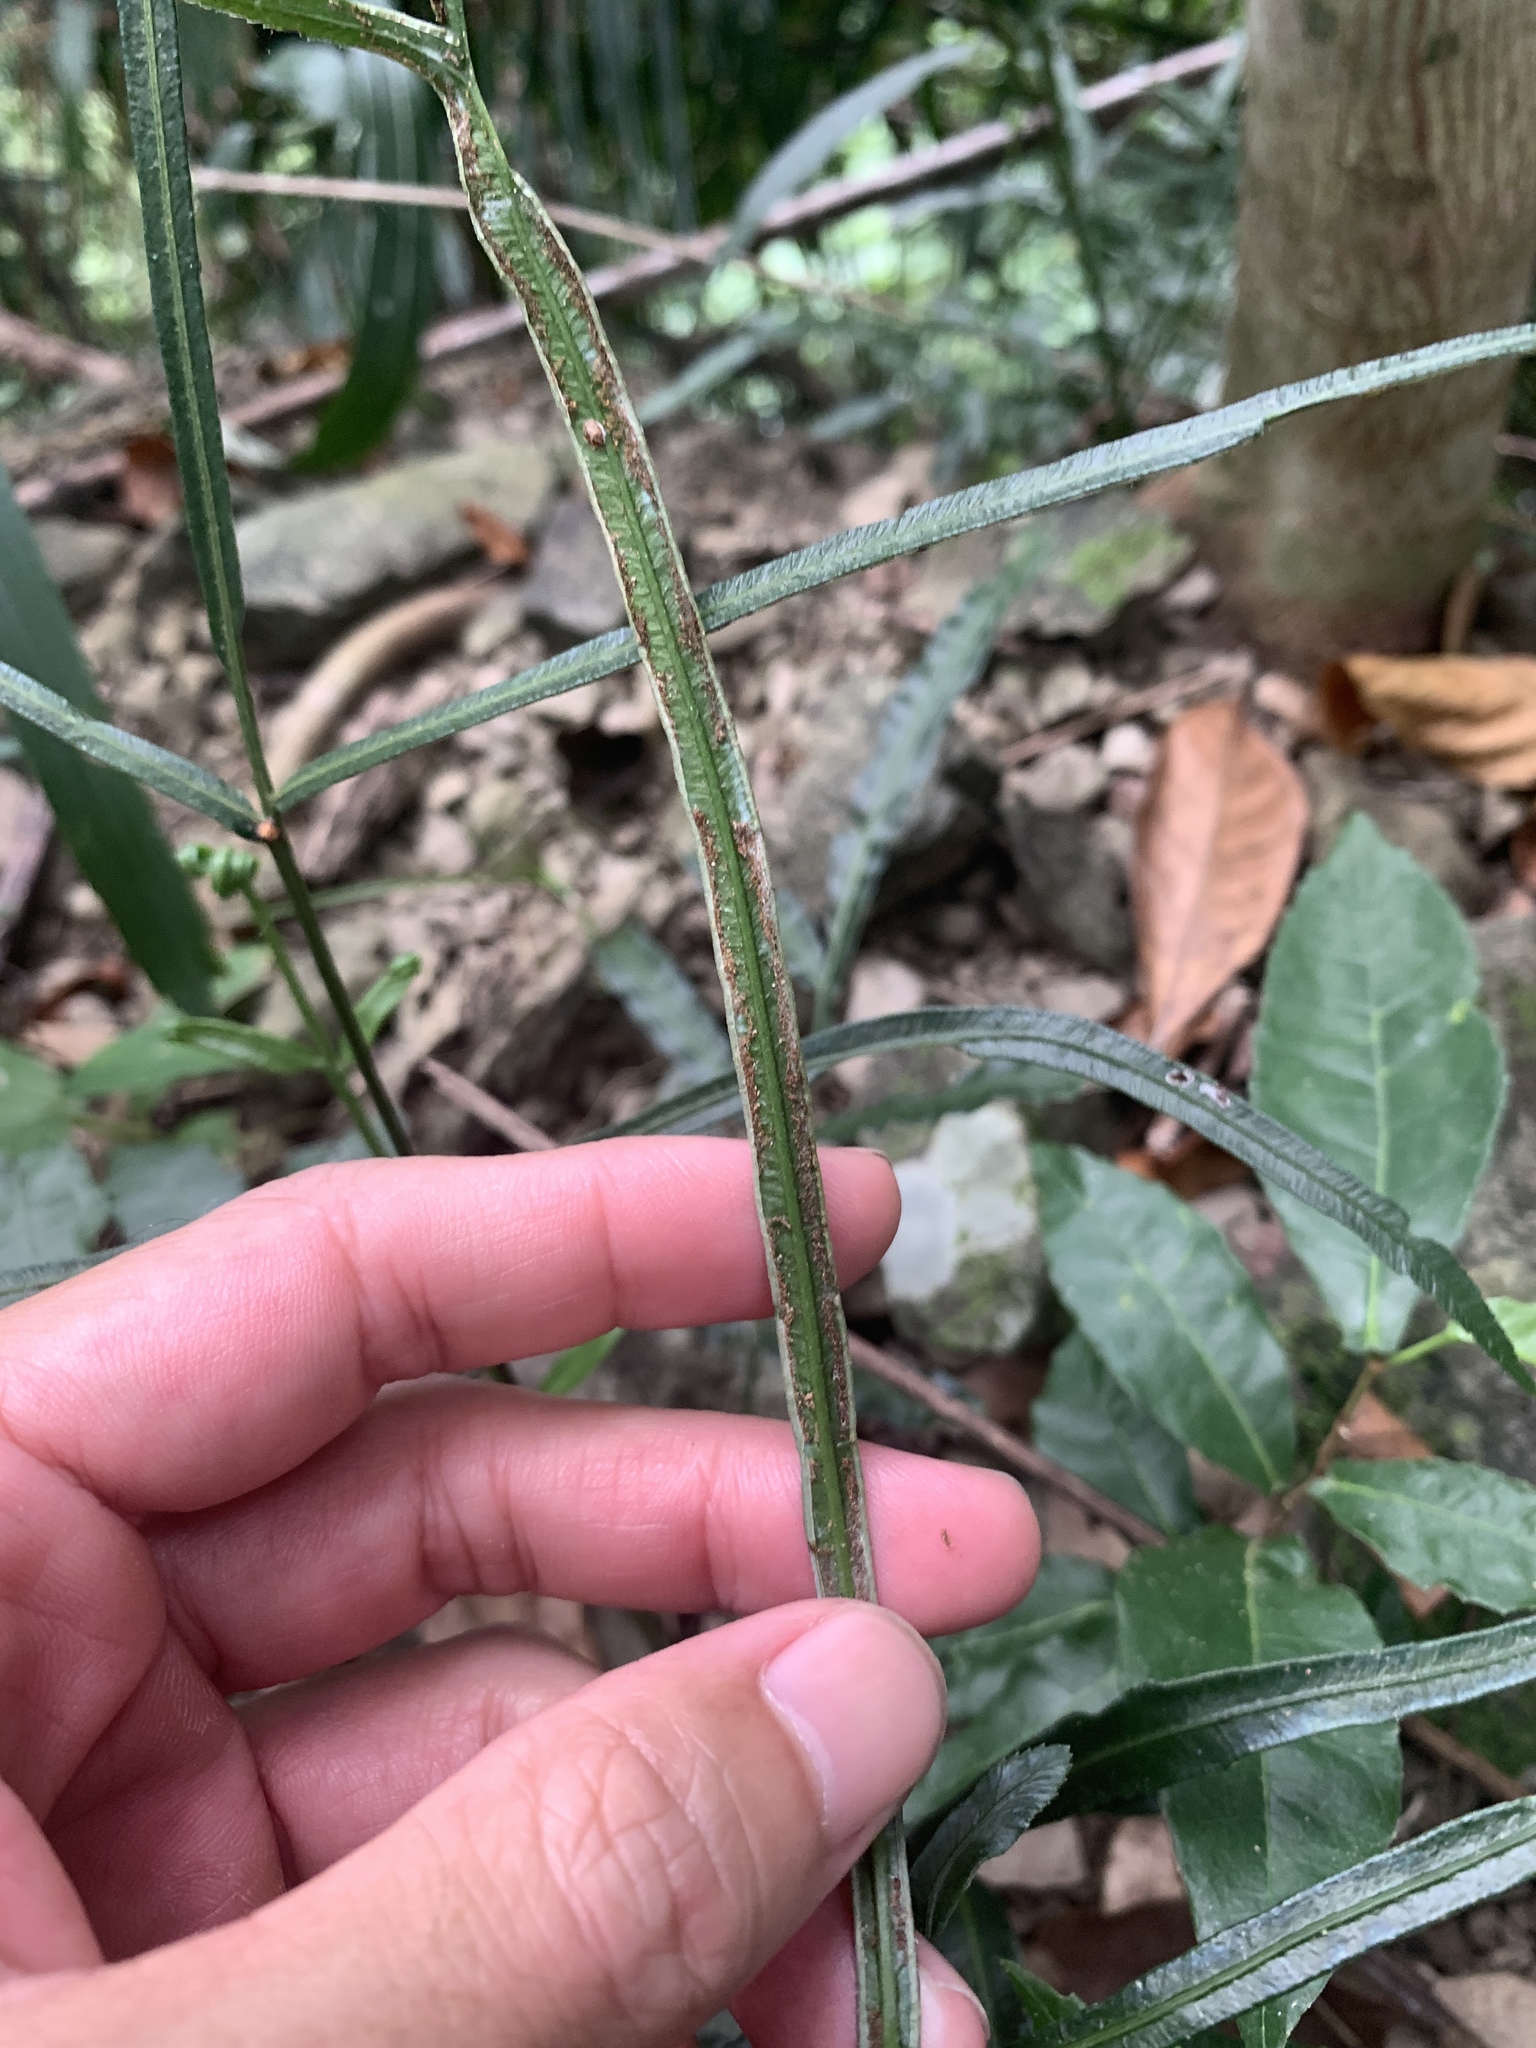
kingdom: Plantae
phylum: Tracheophyta
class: Polypodiopsida
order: Polypodiales
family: Pteridaceae
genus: Pteris
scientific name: Pteris ensiformis
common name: Sword brake
